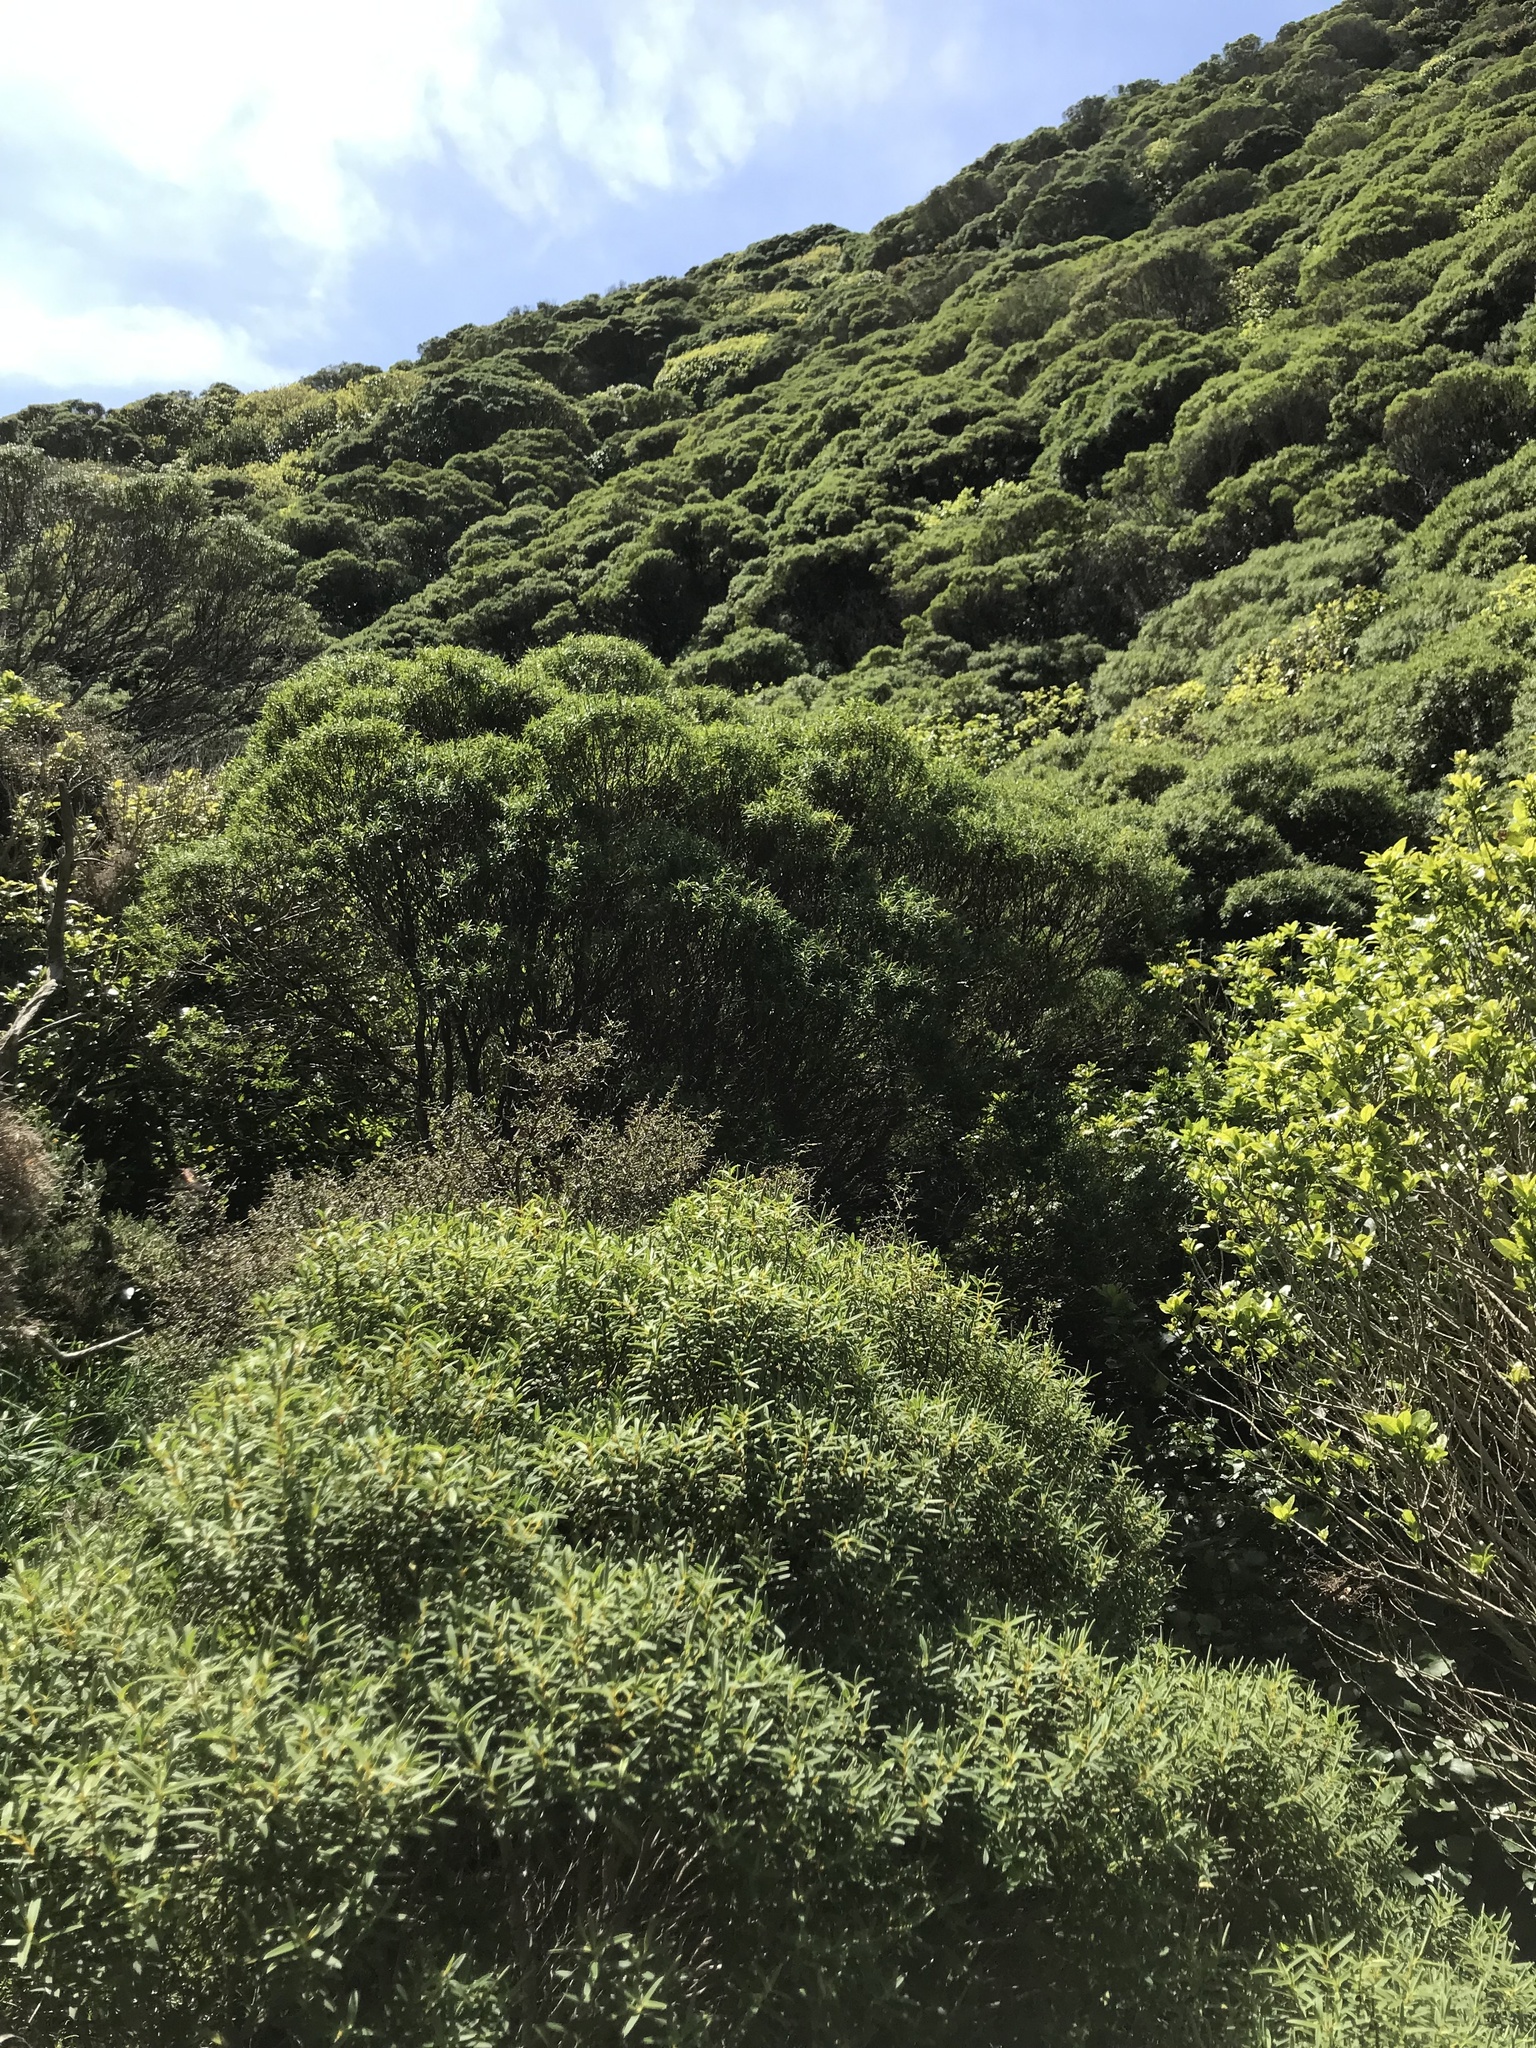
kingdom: Plantae
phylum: Tracheophyta
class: Magnoliopsida
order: Lamiales
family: Plantaginaceae
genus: Veronica
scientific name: Veronica parviflora
